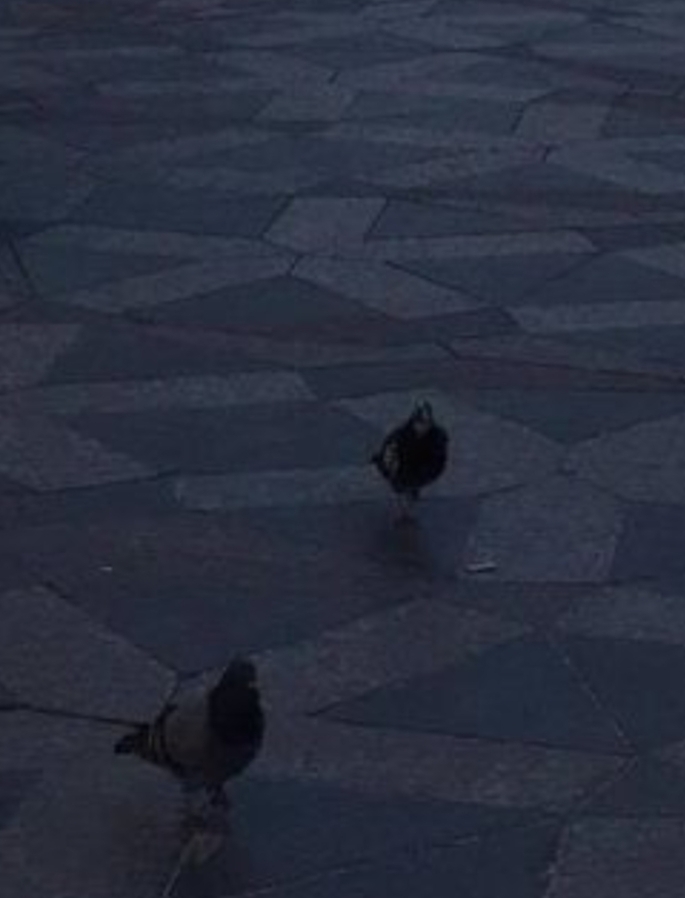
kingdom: Animalia
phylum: Chordata
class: Aves
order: Columbiformes
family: Columbidae
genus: Columba
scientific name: Columba livia
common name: Rock pigeon
